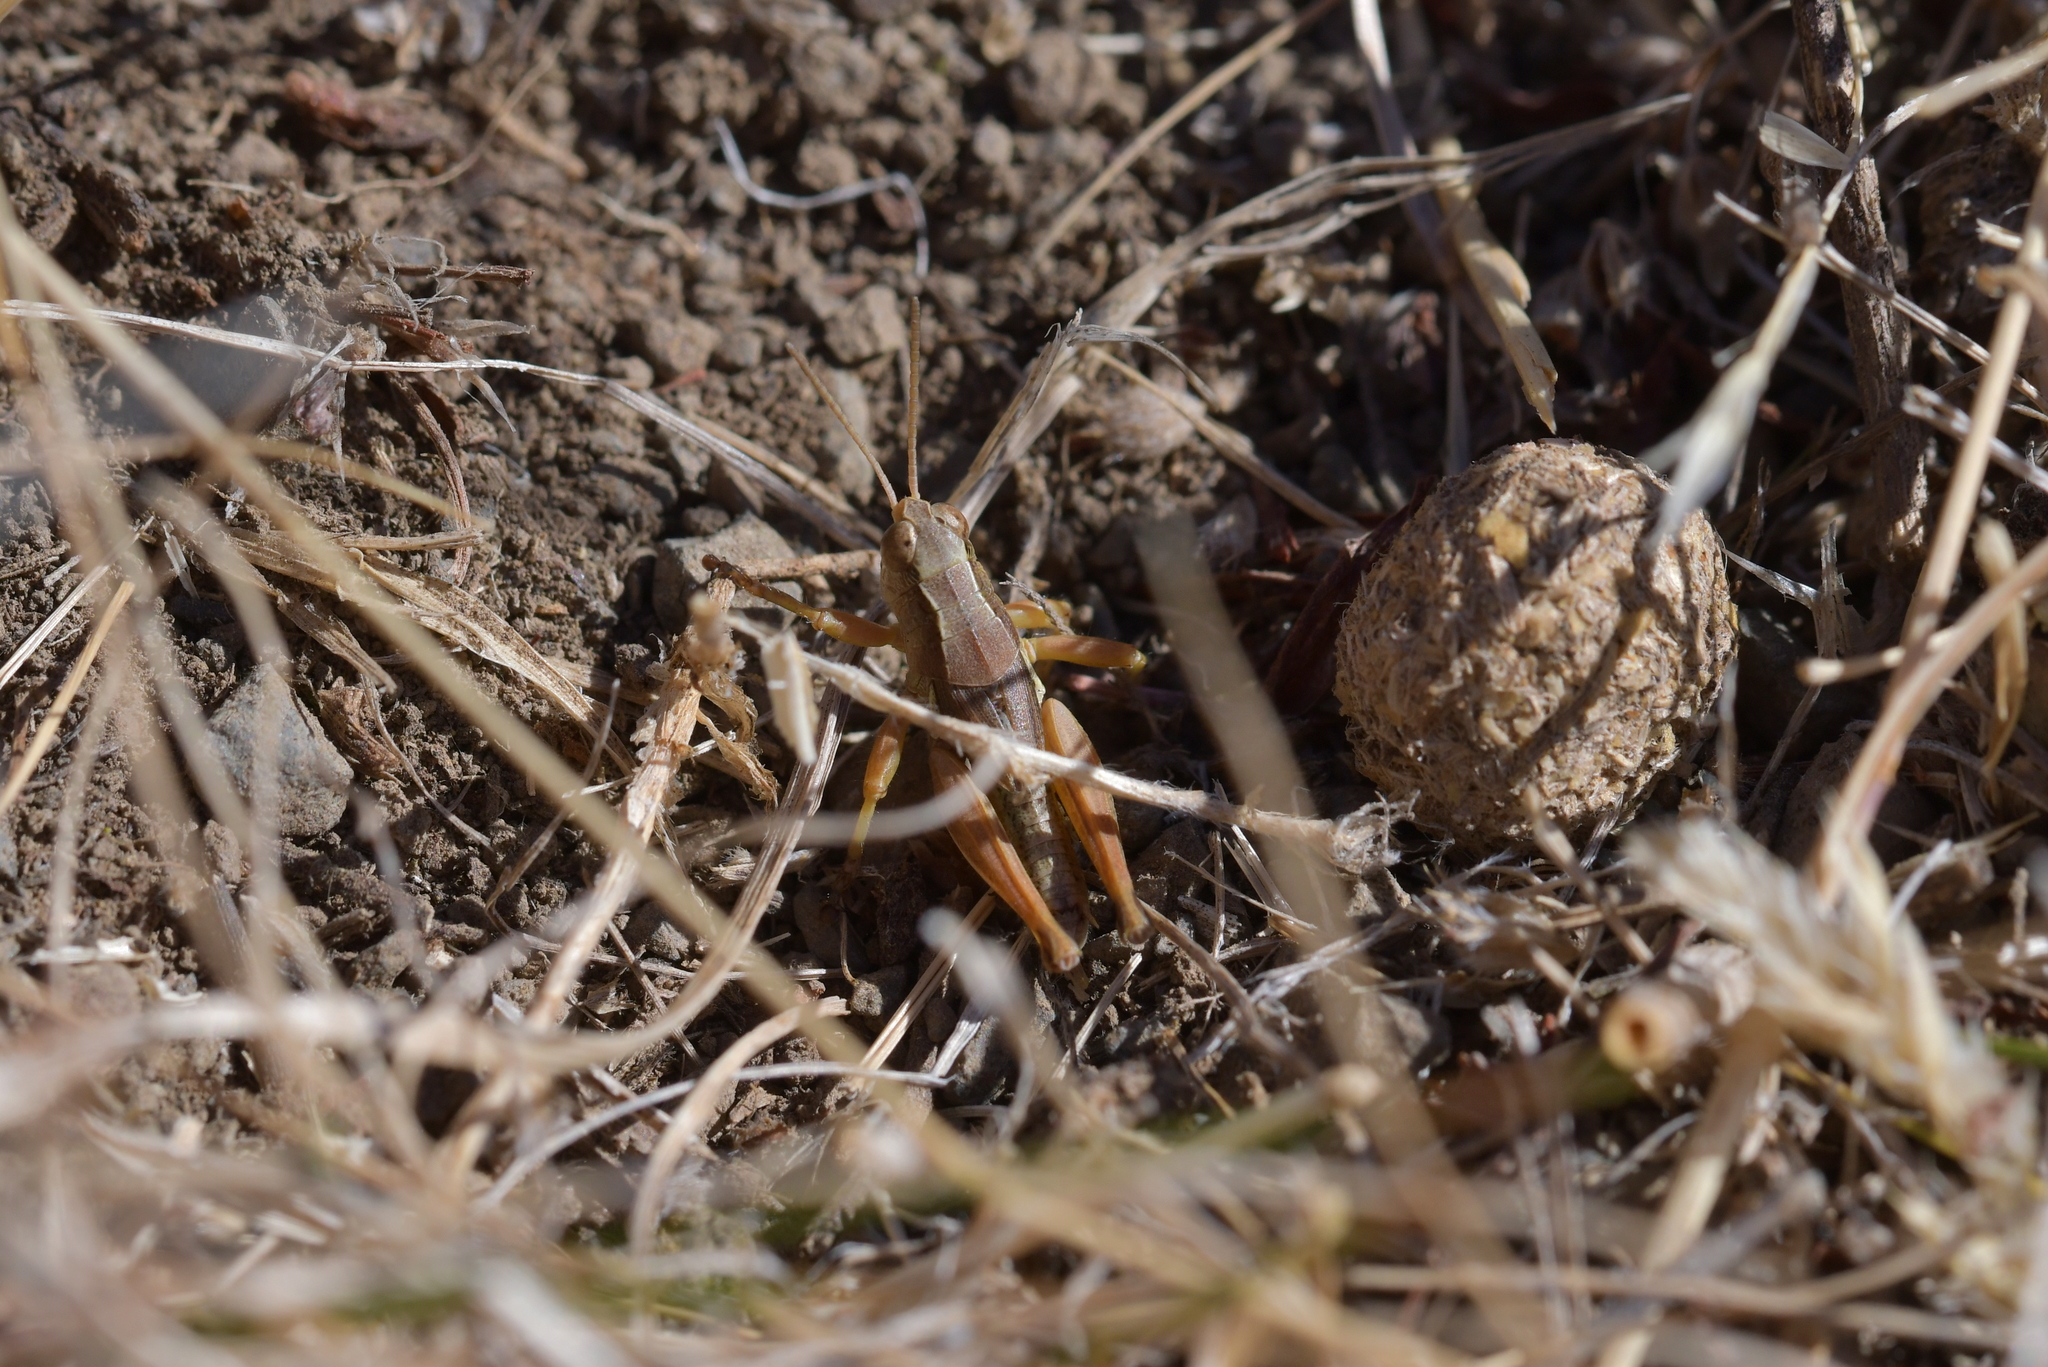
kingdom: Animalia
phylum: Arthropoda
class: Insecta
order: Orthoptera
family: Acrididae
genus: Phaulacridium
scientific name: Phaulacridium marginale
